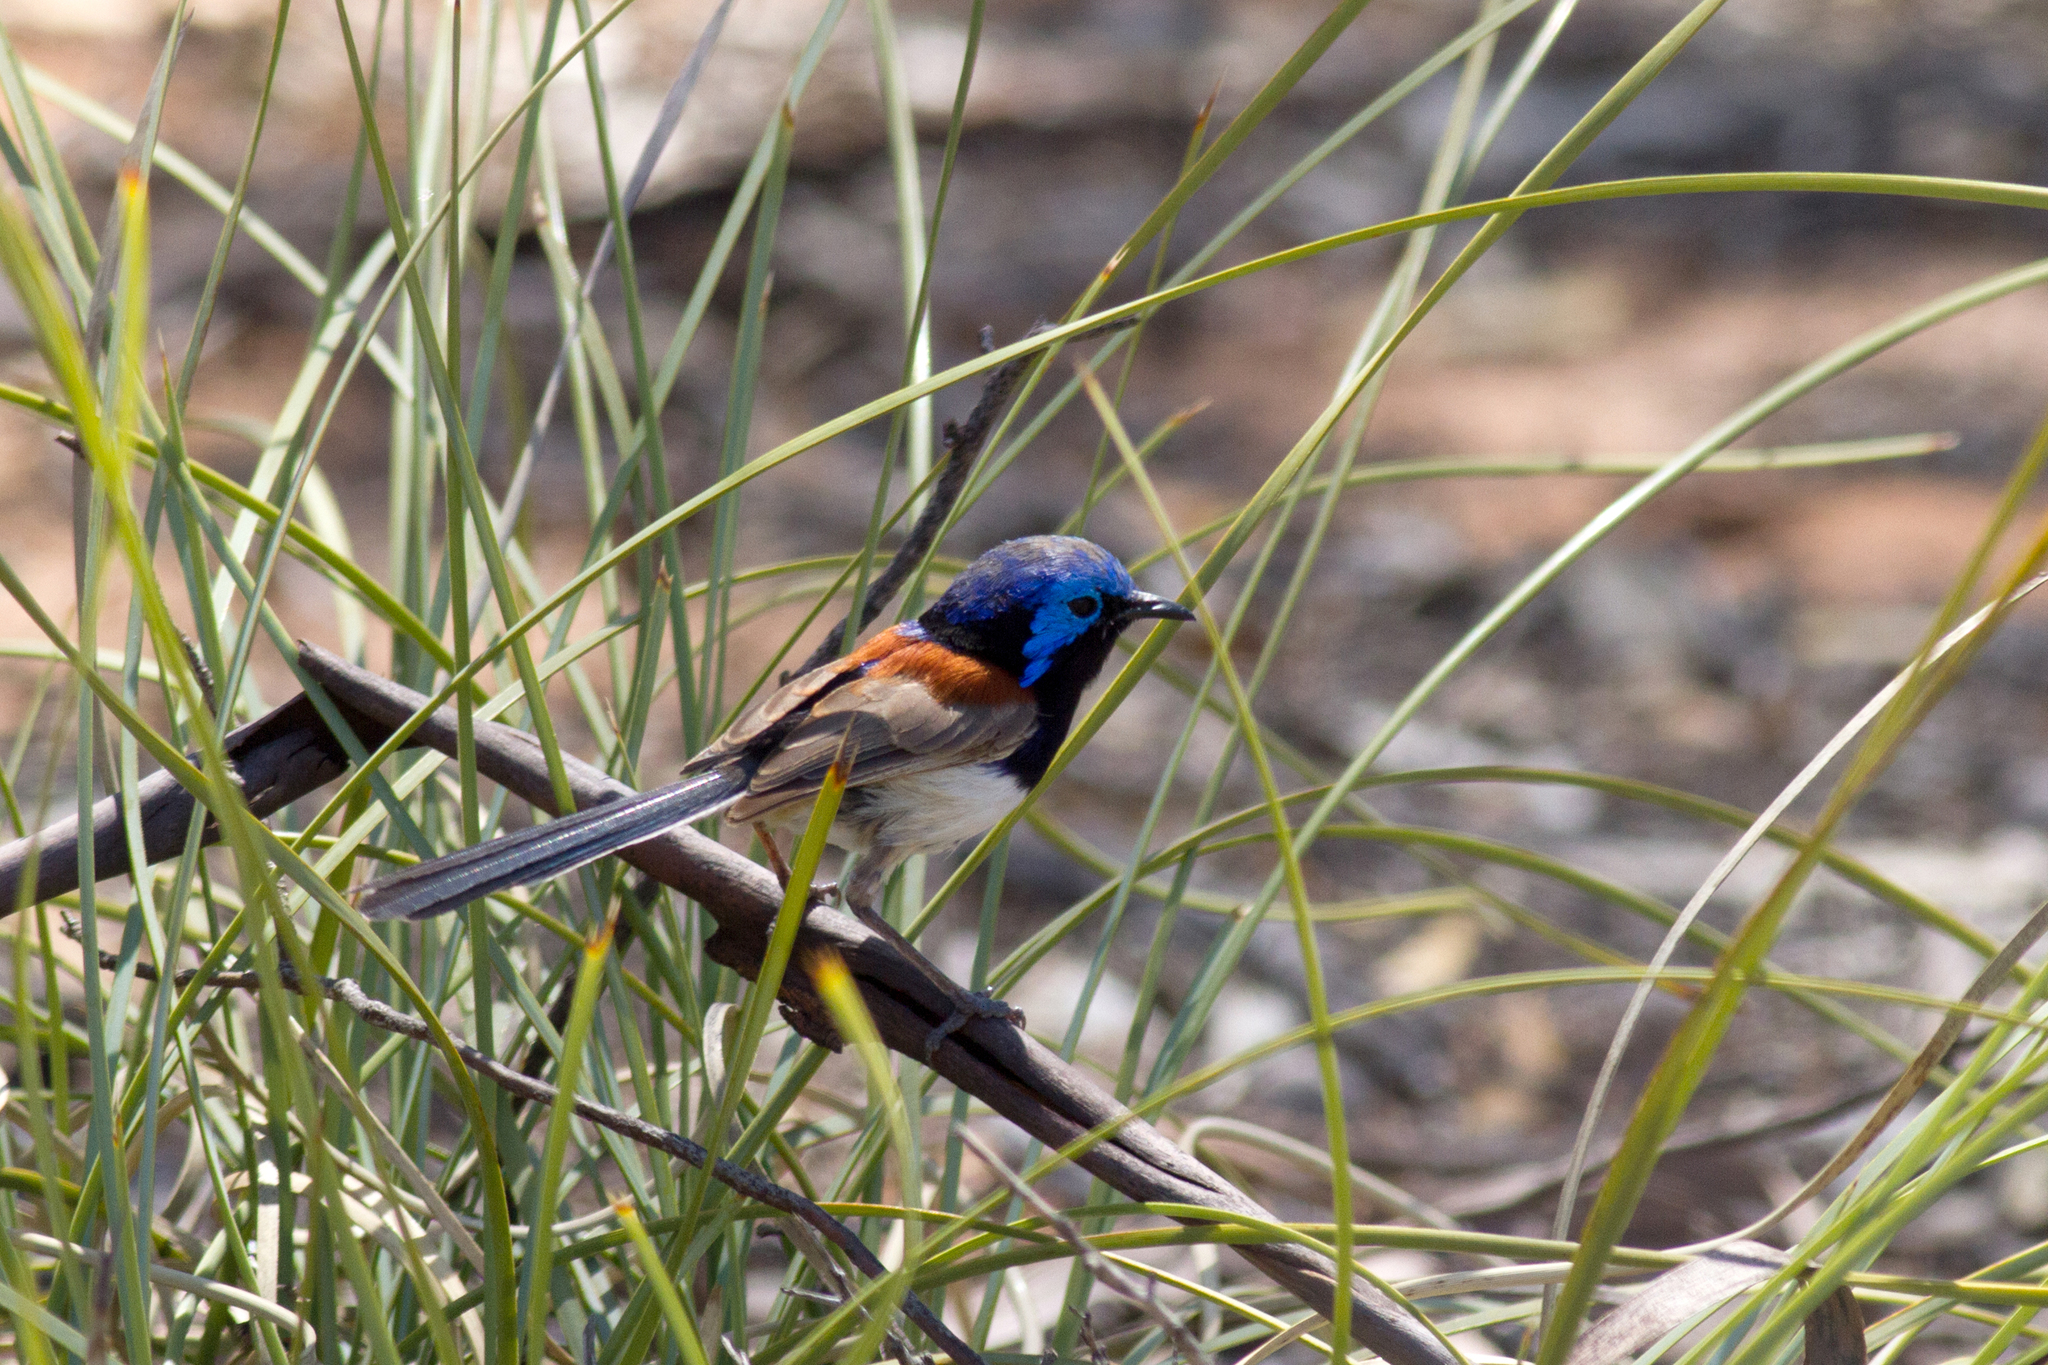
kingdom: Animalia
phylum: Chordata
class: Aves
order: Passeriformes
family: Maluridae
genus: Malurus
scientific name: Malurus assimilis
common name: Purple-backed fairywren
